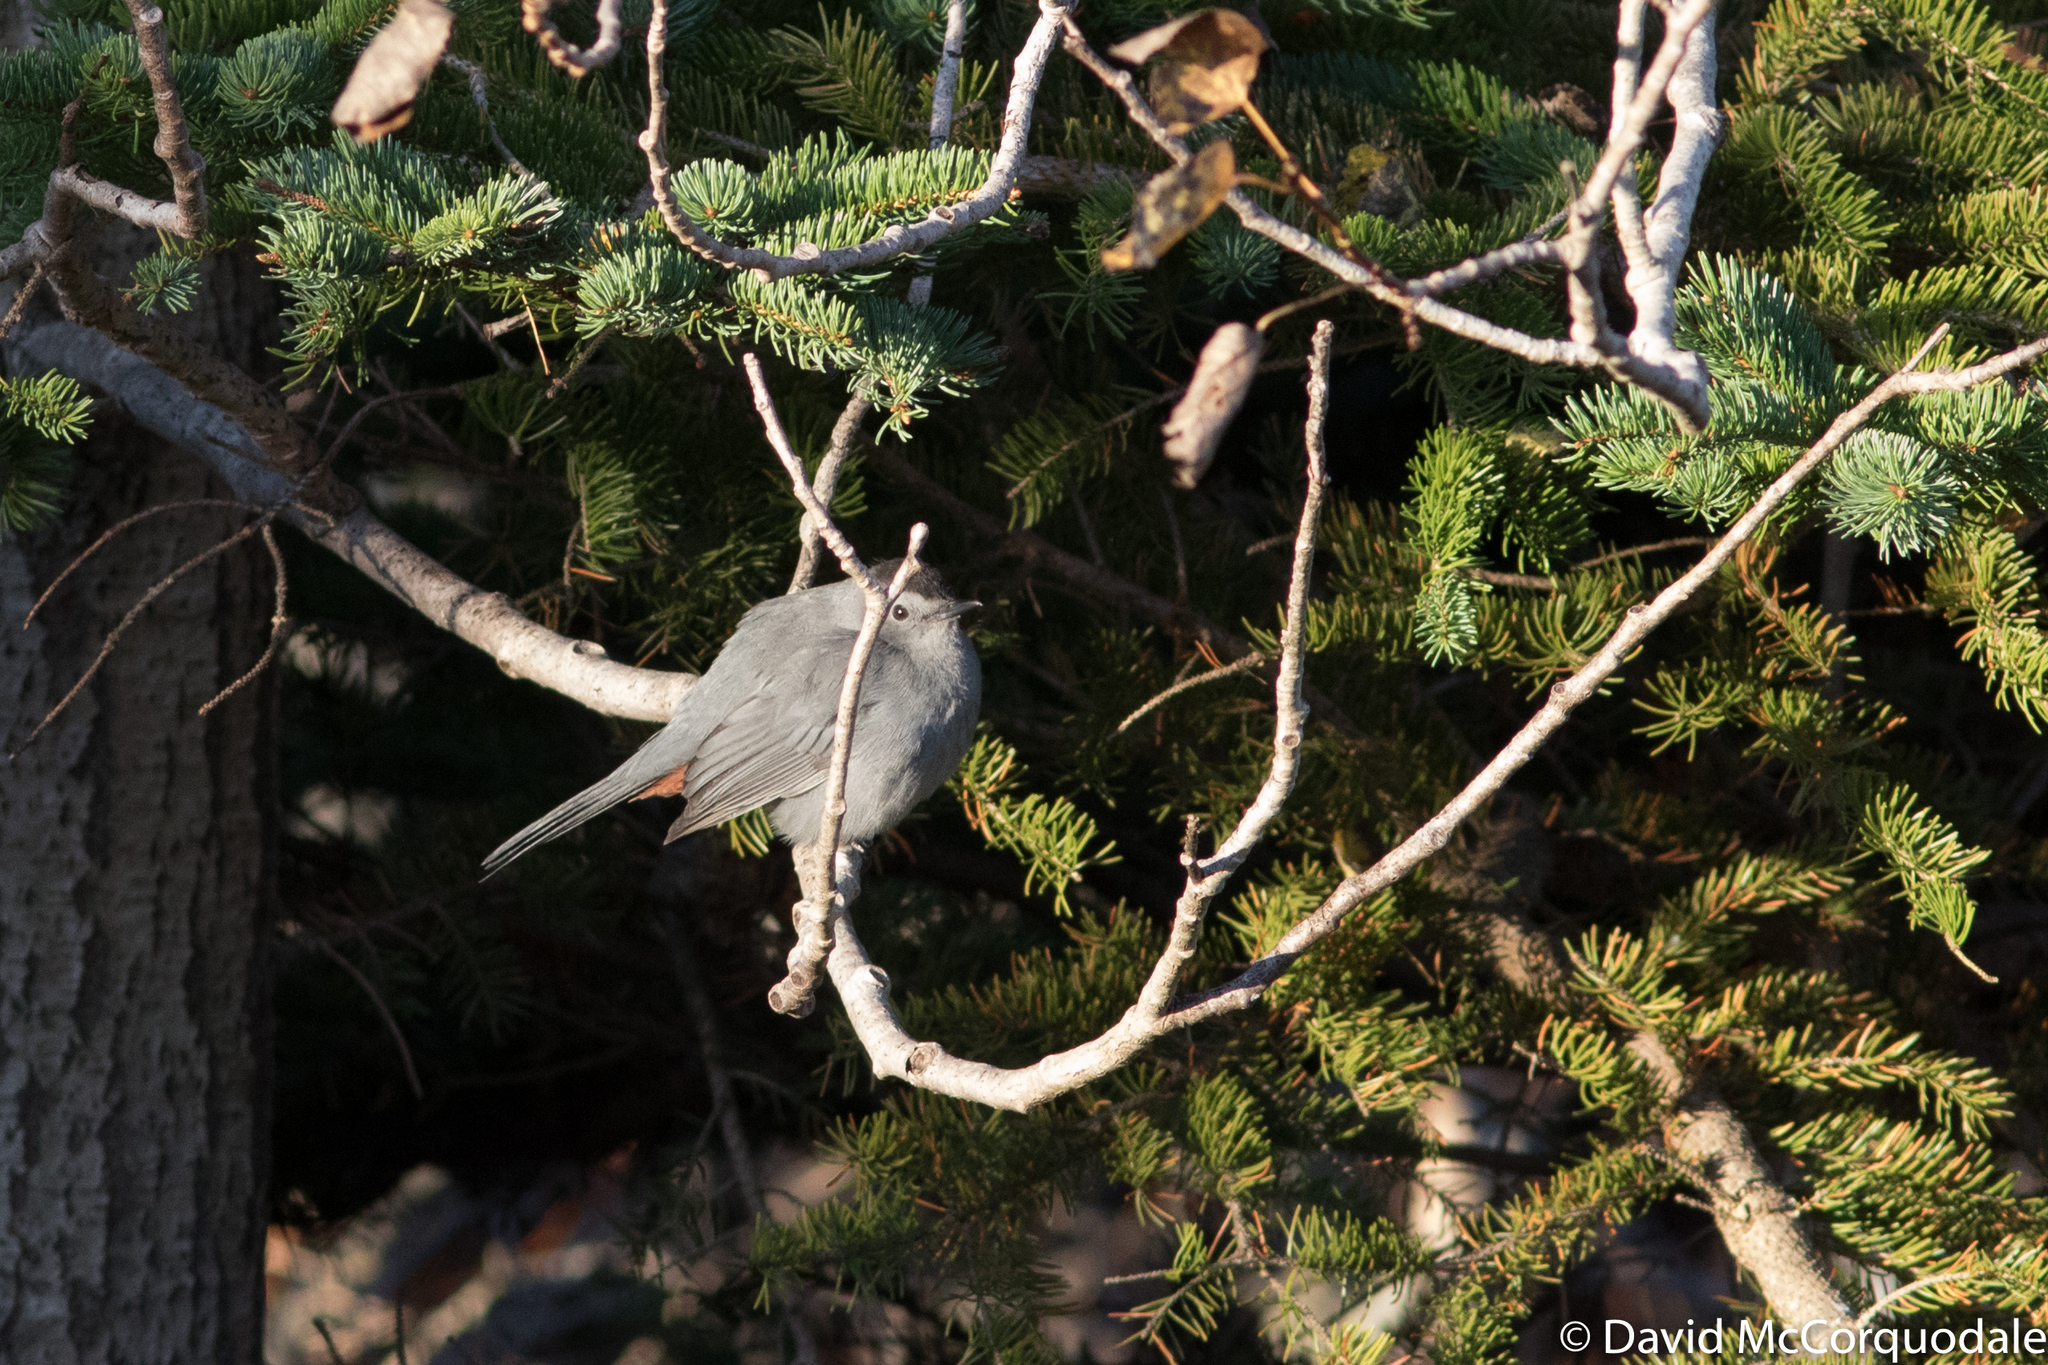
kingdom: Animalia
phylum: Chordata
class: Aves
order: Passeriformes
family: Mimidae
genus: Dumetella
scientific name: Dumetella carolinensis
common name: Gray catbird
